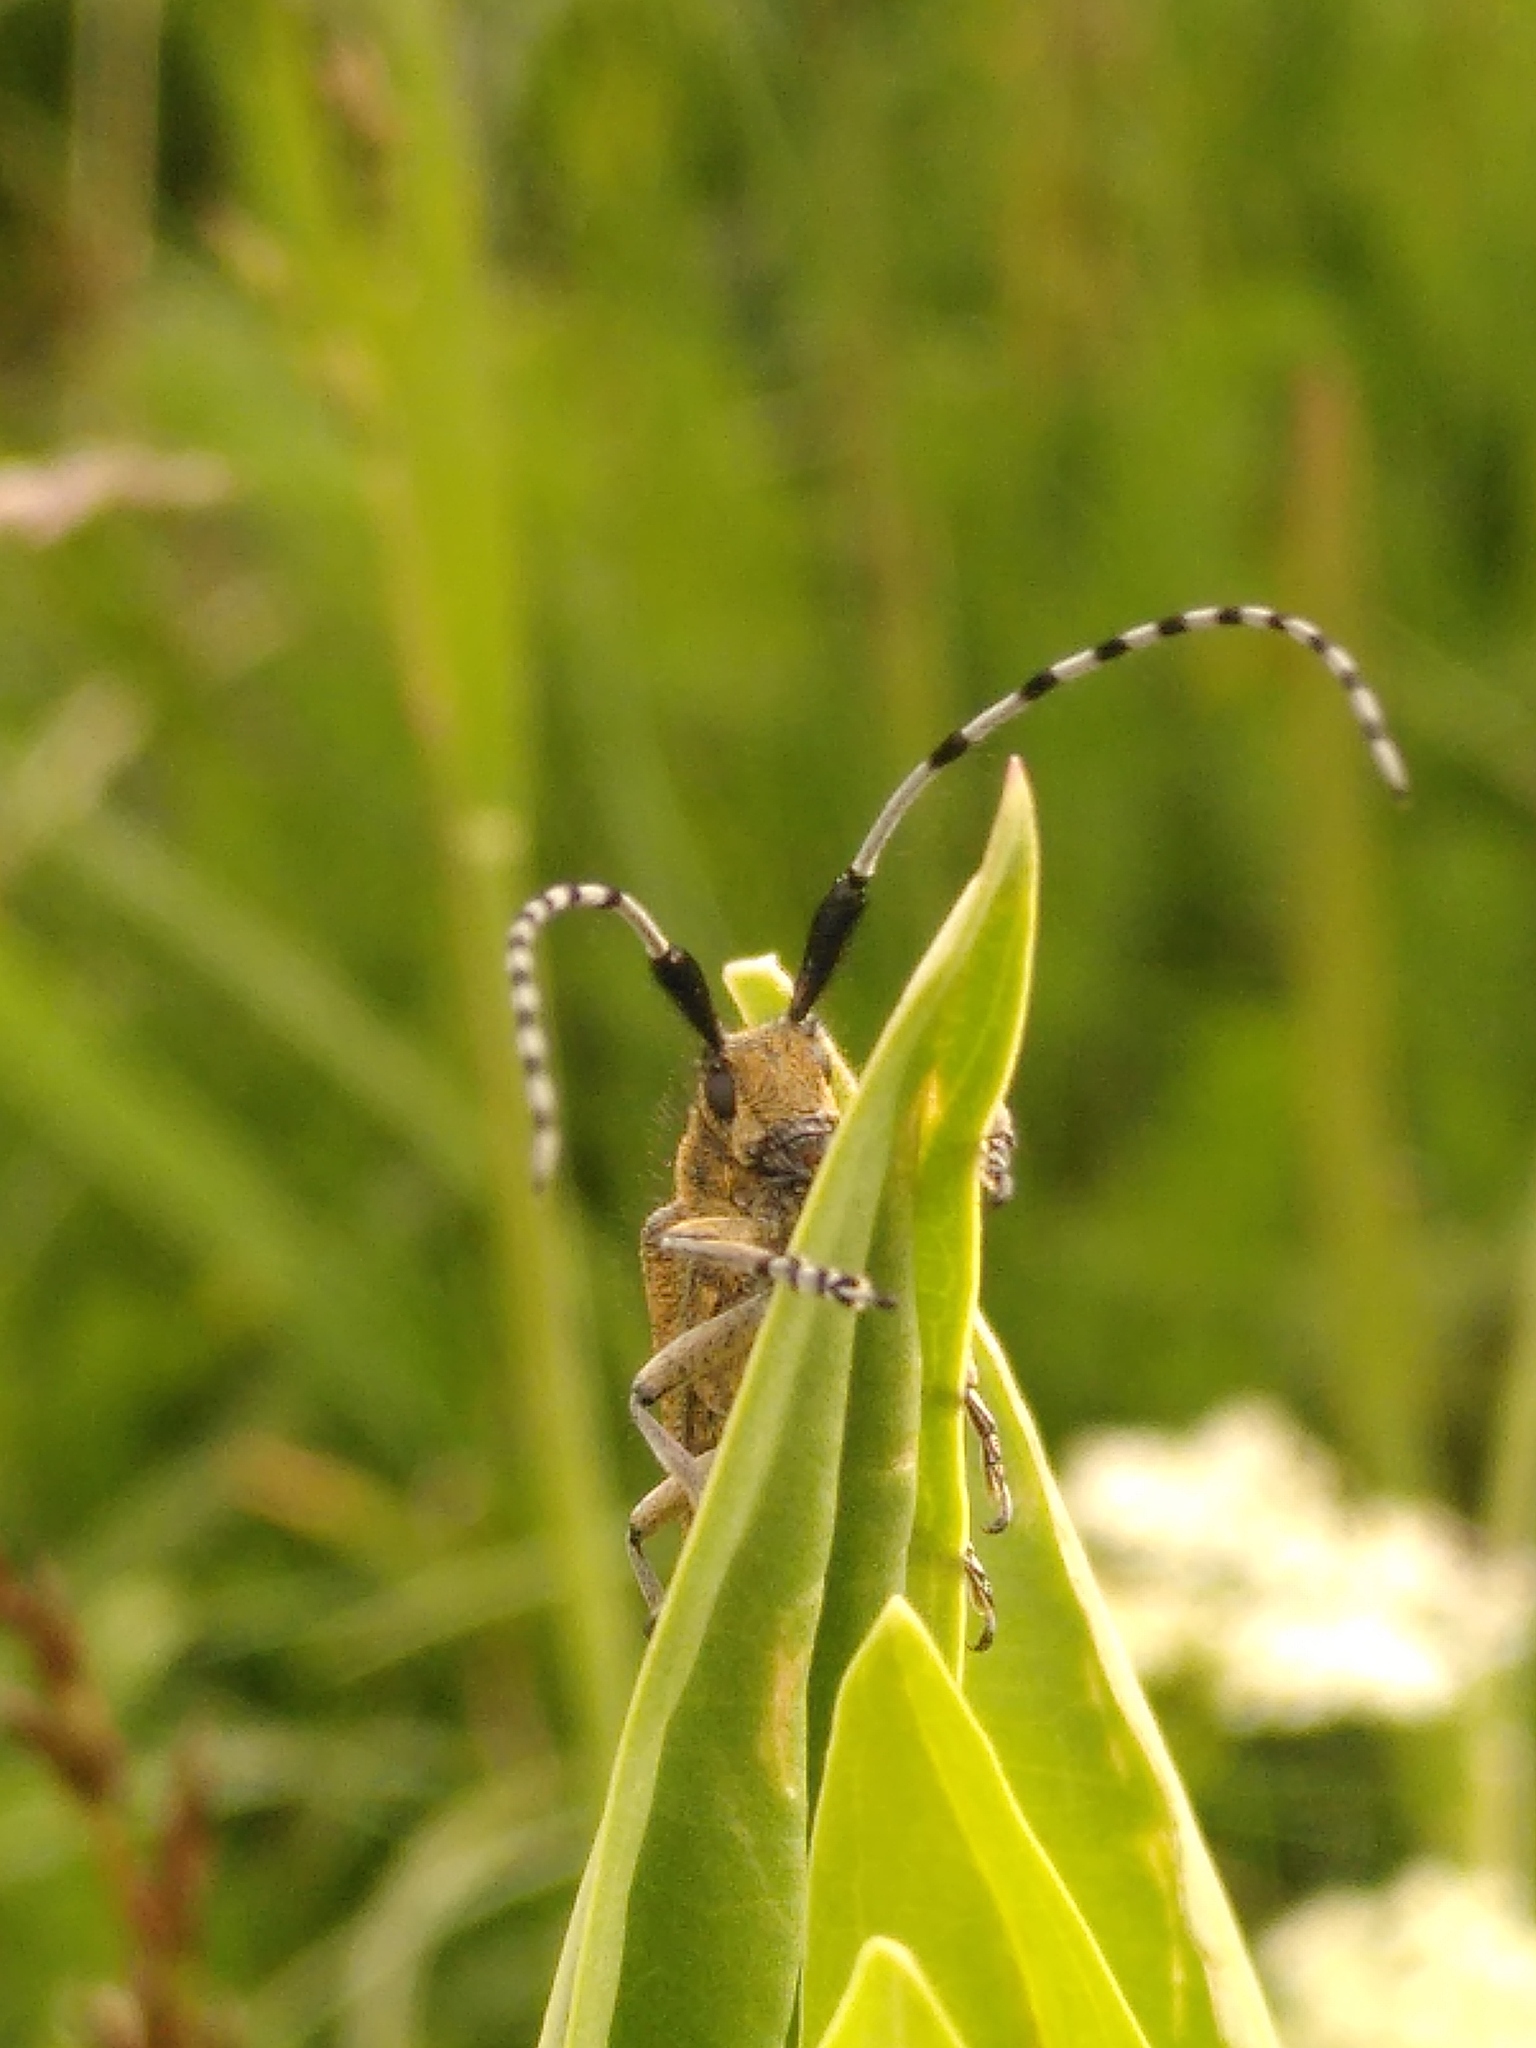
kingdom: Animalia
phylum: Arthropoda
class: Insecta
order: Coleoptera
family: Cerambycidae
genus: Agapanthia
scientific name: Agapanthia villosoviridescens
